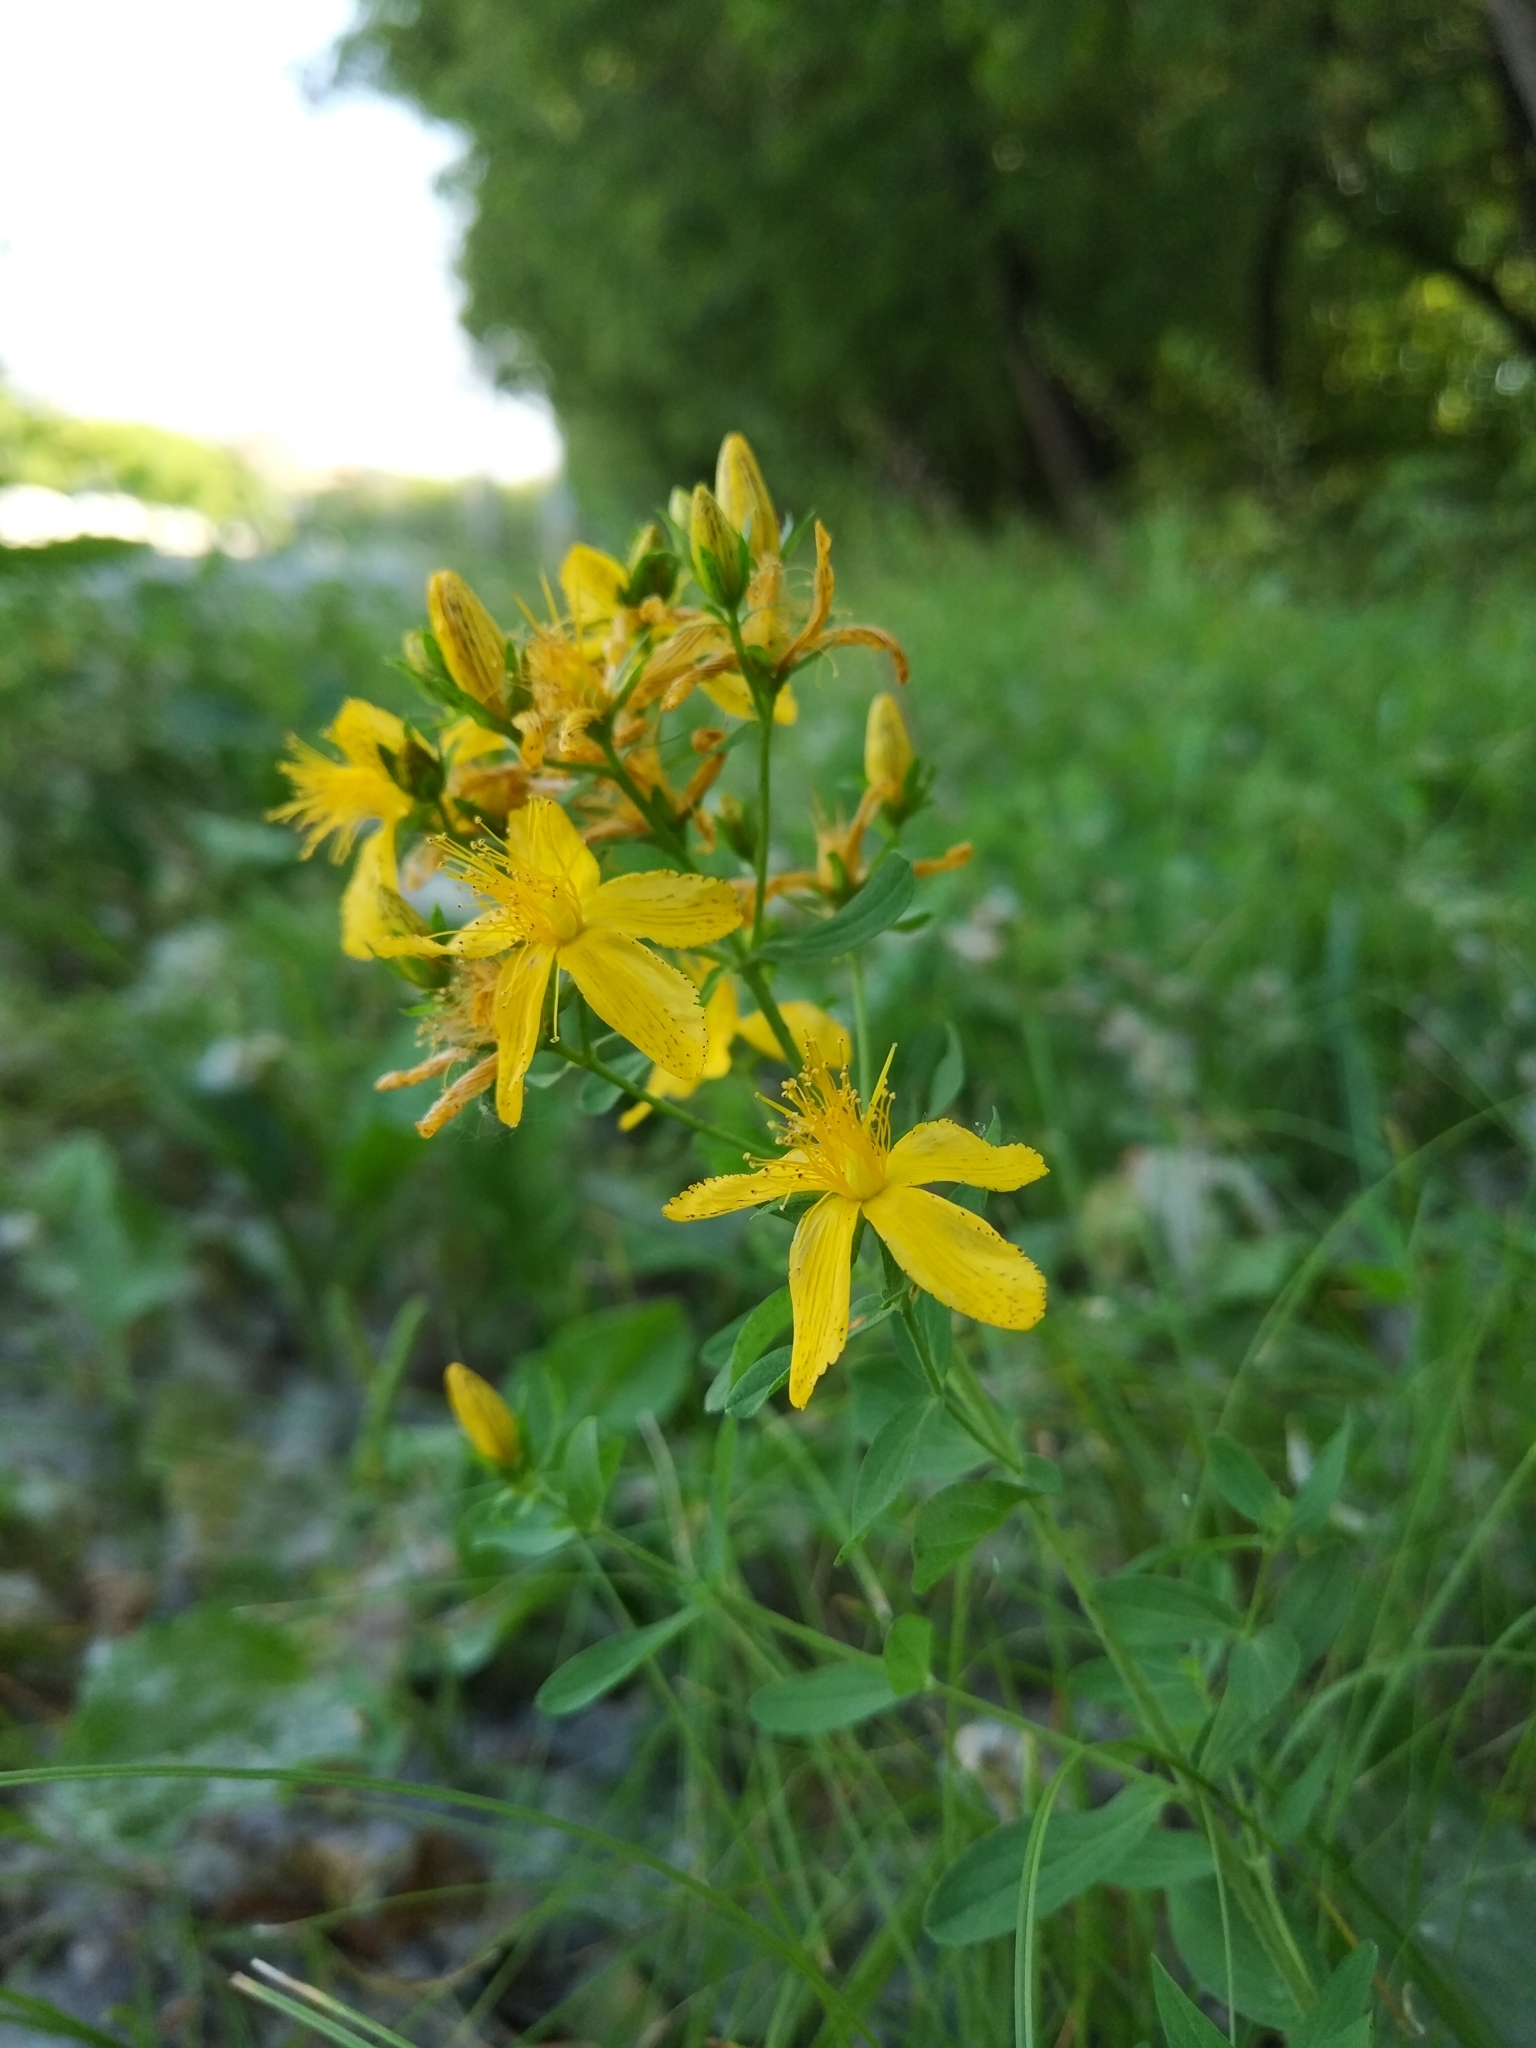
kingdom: Plantae
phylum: Tracheophyta
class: Magnoliopsida
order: Malpighiales
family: Hypericaceae
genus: Hypericum
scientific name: Hypericum perforatum
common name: Common st. johnswort
